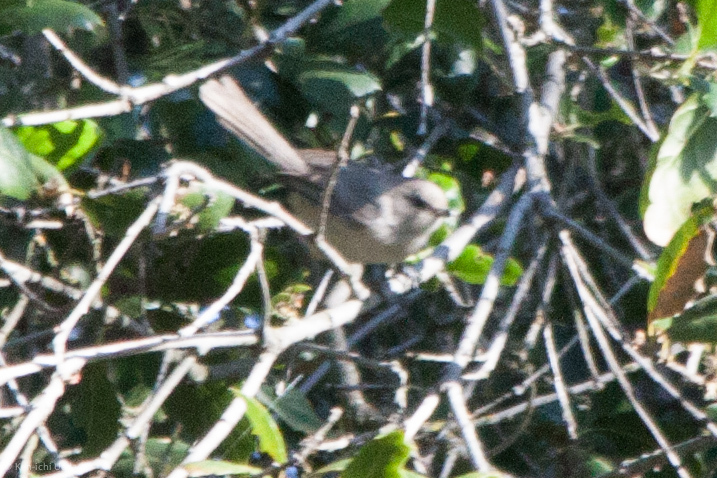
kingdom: Animalia
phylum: Chordata
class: Aves
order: Passeriformes
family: Aegithalidae
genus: Psaltriparus
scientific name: Psaltriparus minimus
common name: American bushtit
